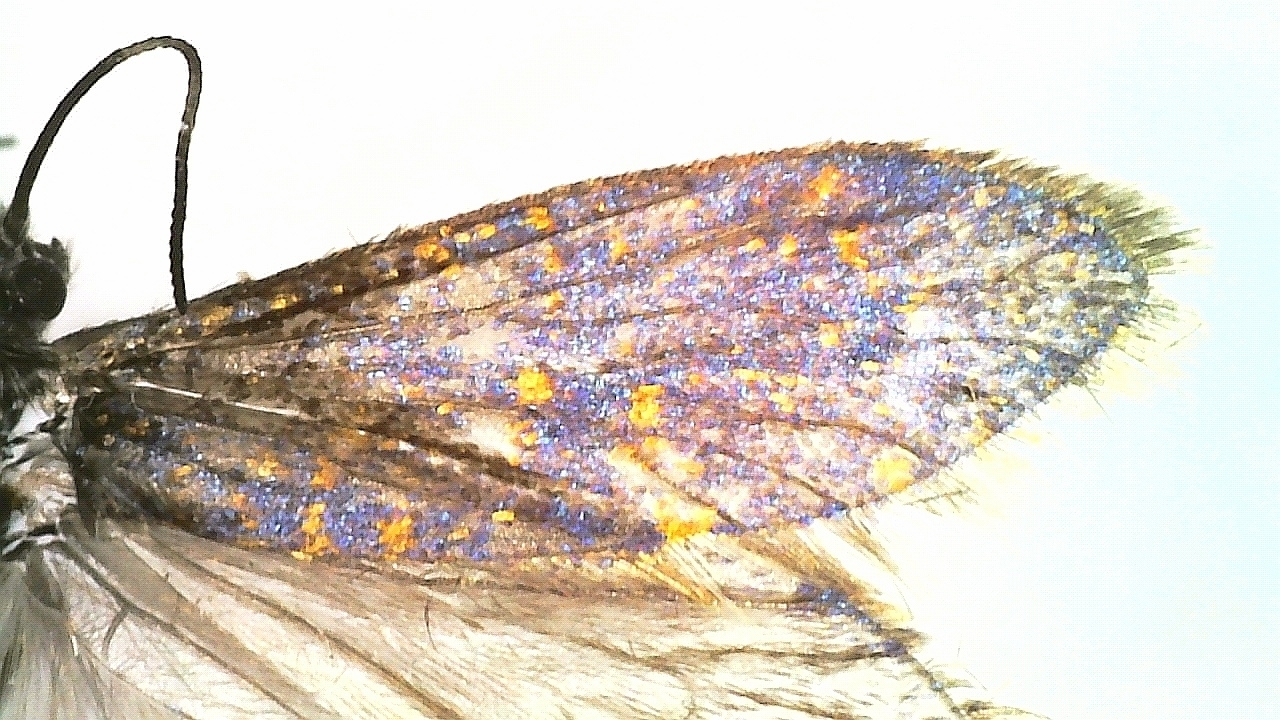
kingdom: Animalia
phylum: Arthropoda
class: Insecta
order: Lepidoptera
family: Eriocraniidae
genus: Eriocrania
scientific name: Eriocrania sparrmannella
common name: Mottled purple
